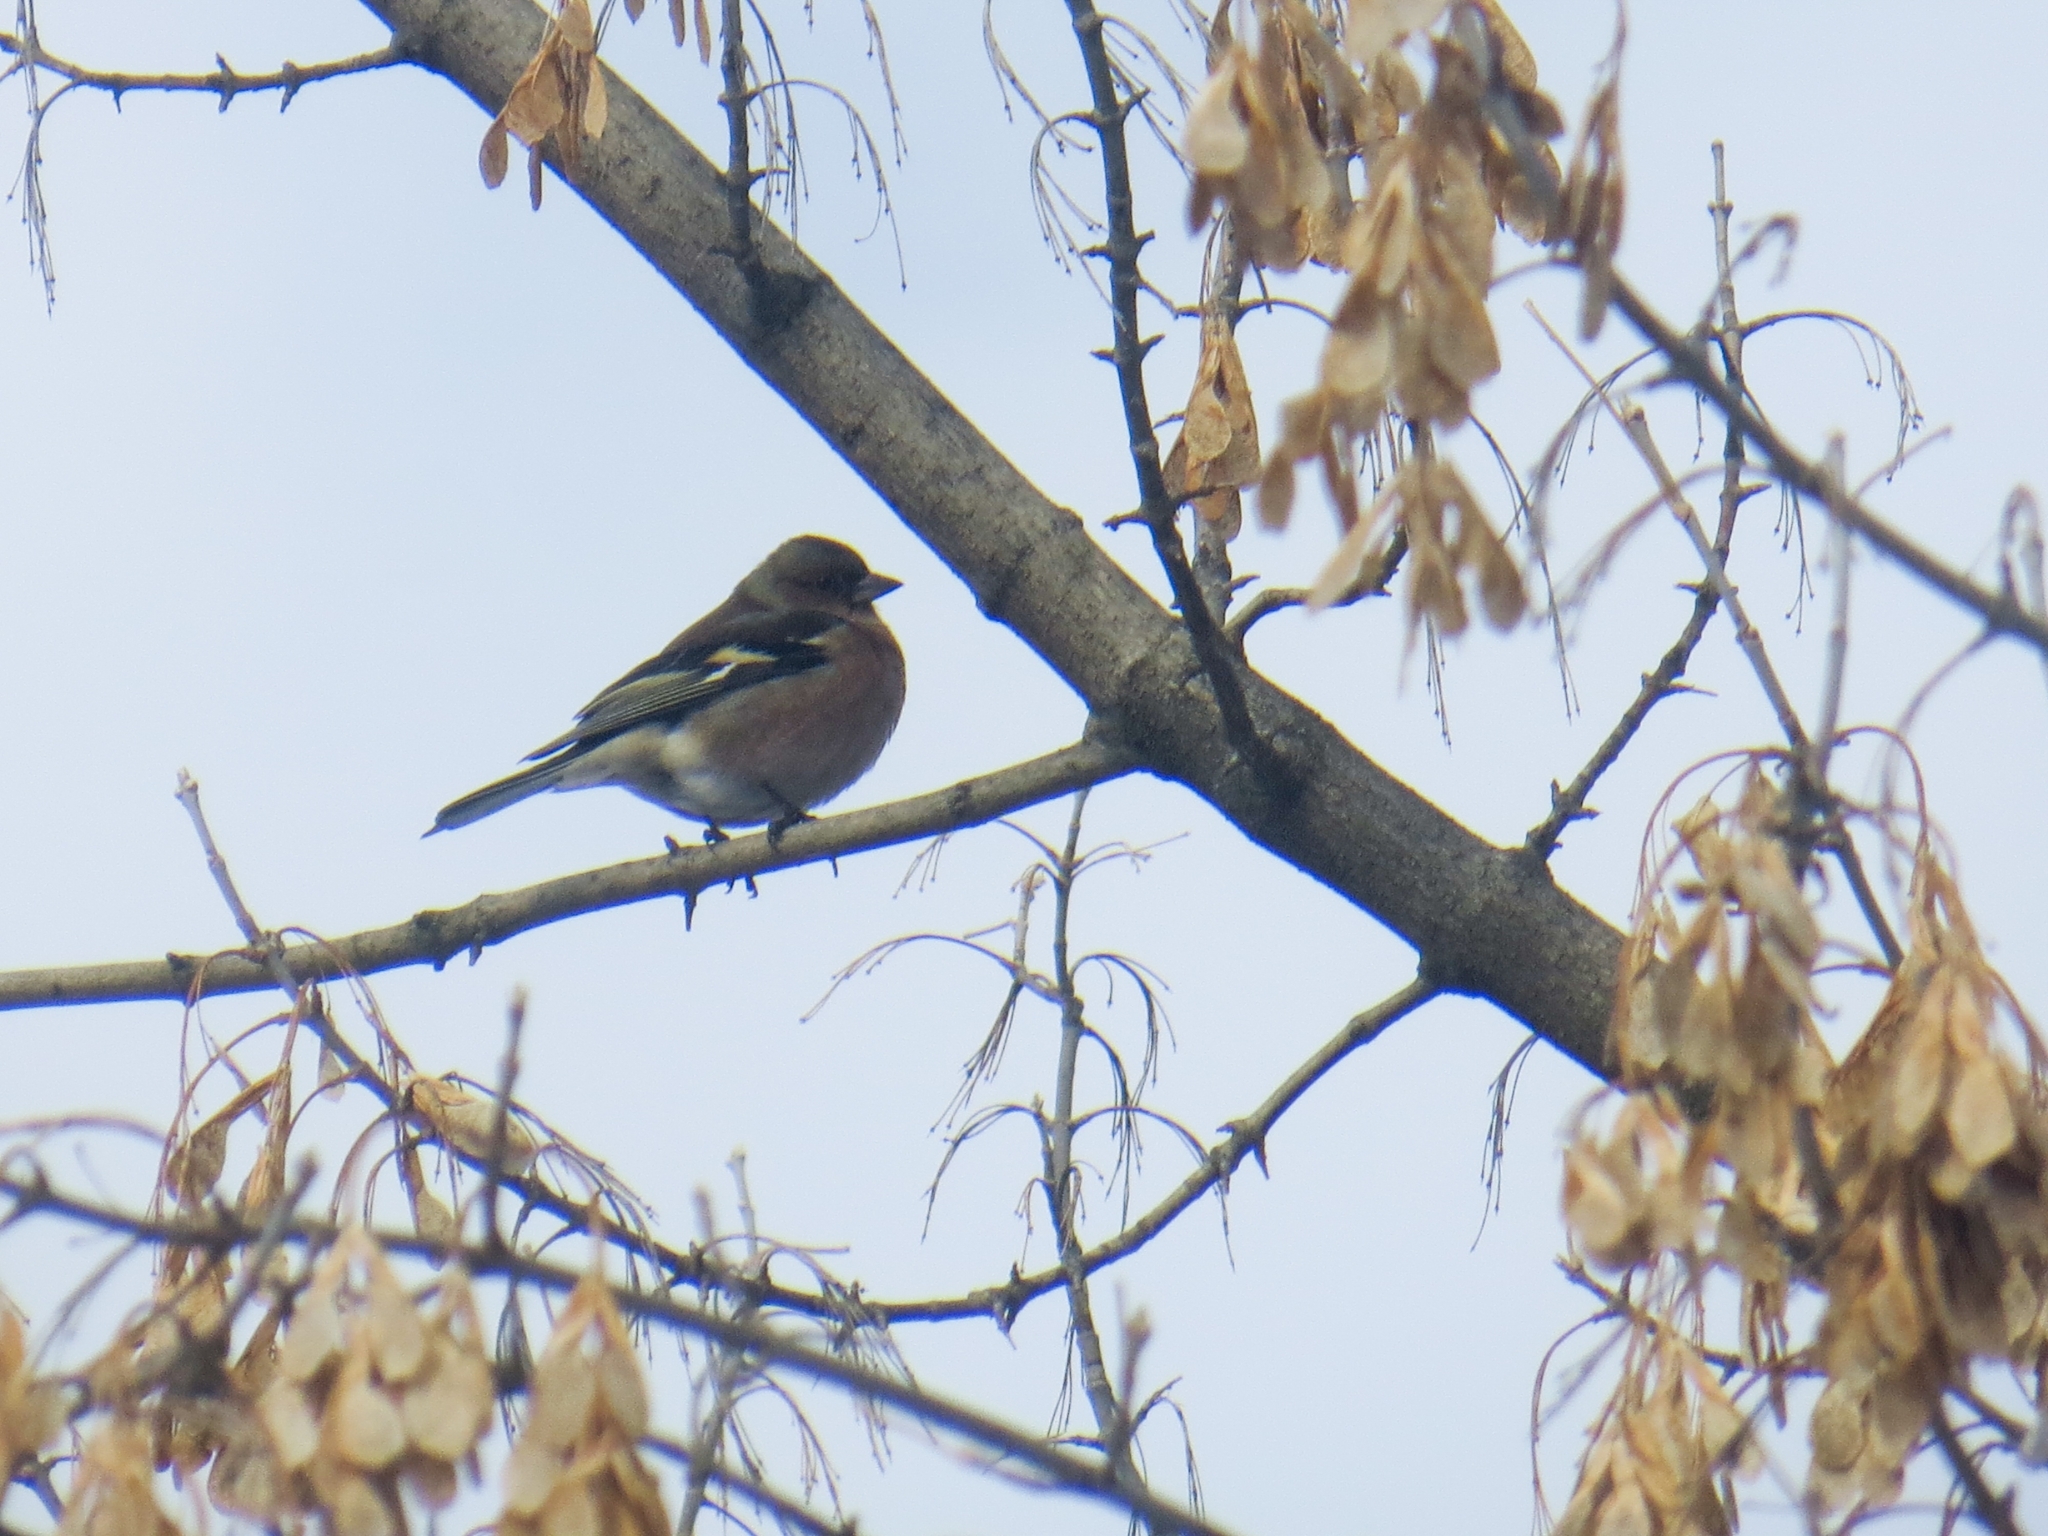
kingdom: Animalia
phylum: Chordata
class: Aves
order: Passeriformes
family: Fringillidae
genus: Fringilla
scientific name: Fringilla coelebs
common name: Common chaffinch
